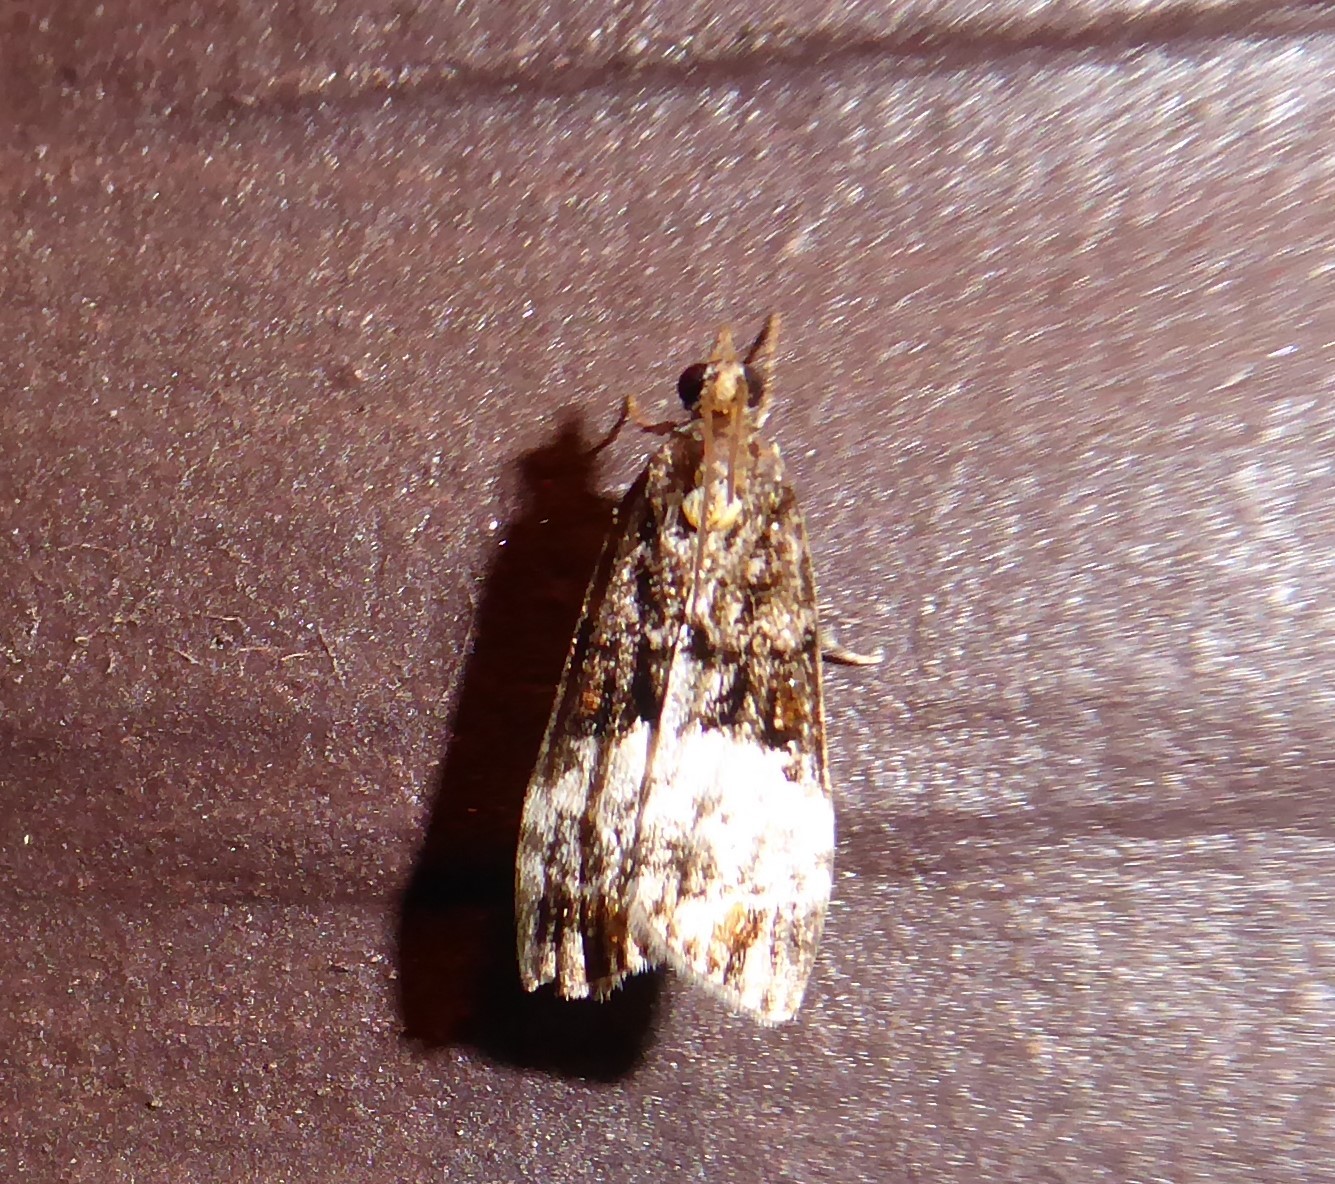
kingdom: Animalia
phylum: Arthropoda
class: Insecta
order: Lepidoptera
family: Crambidae
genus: Scoparia
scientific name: Scoparia minusculalis
